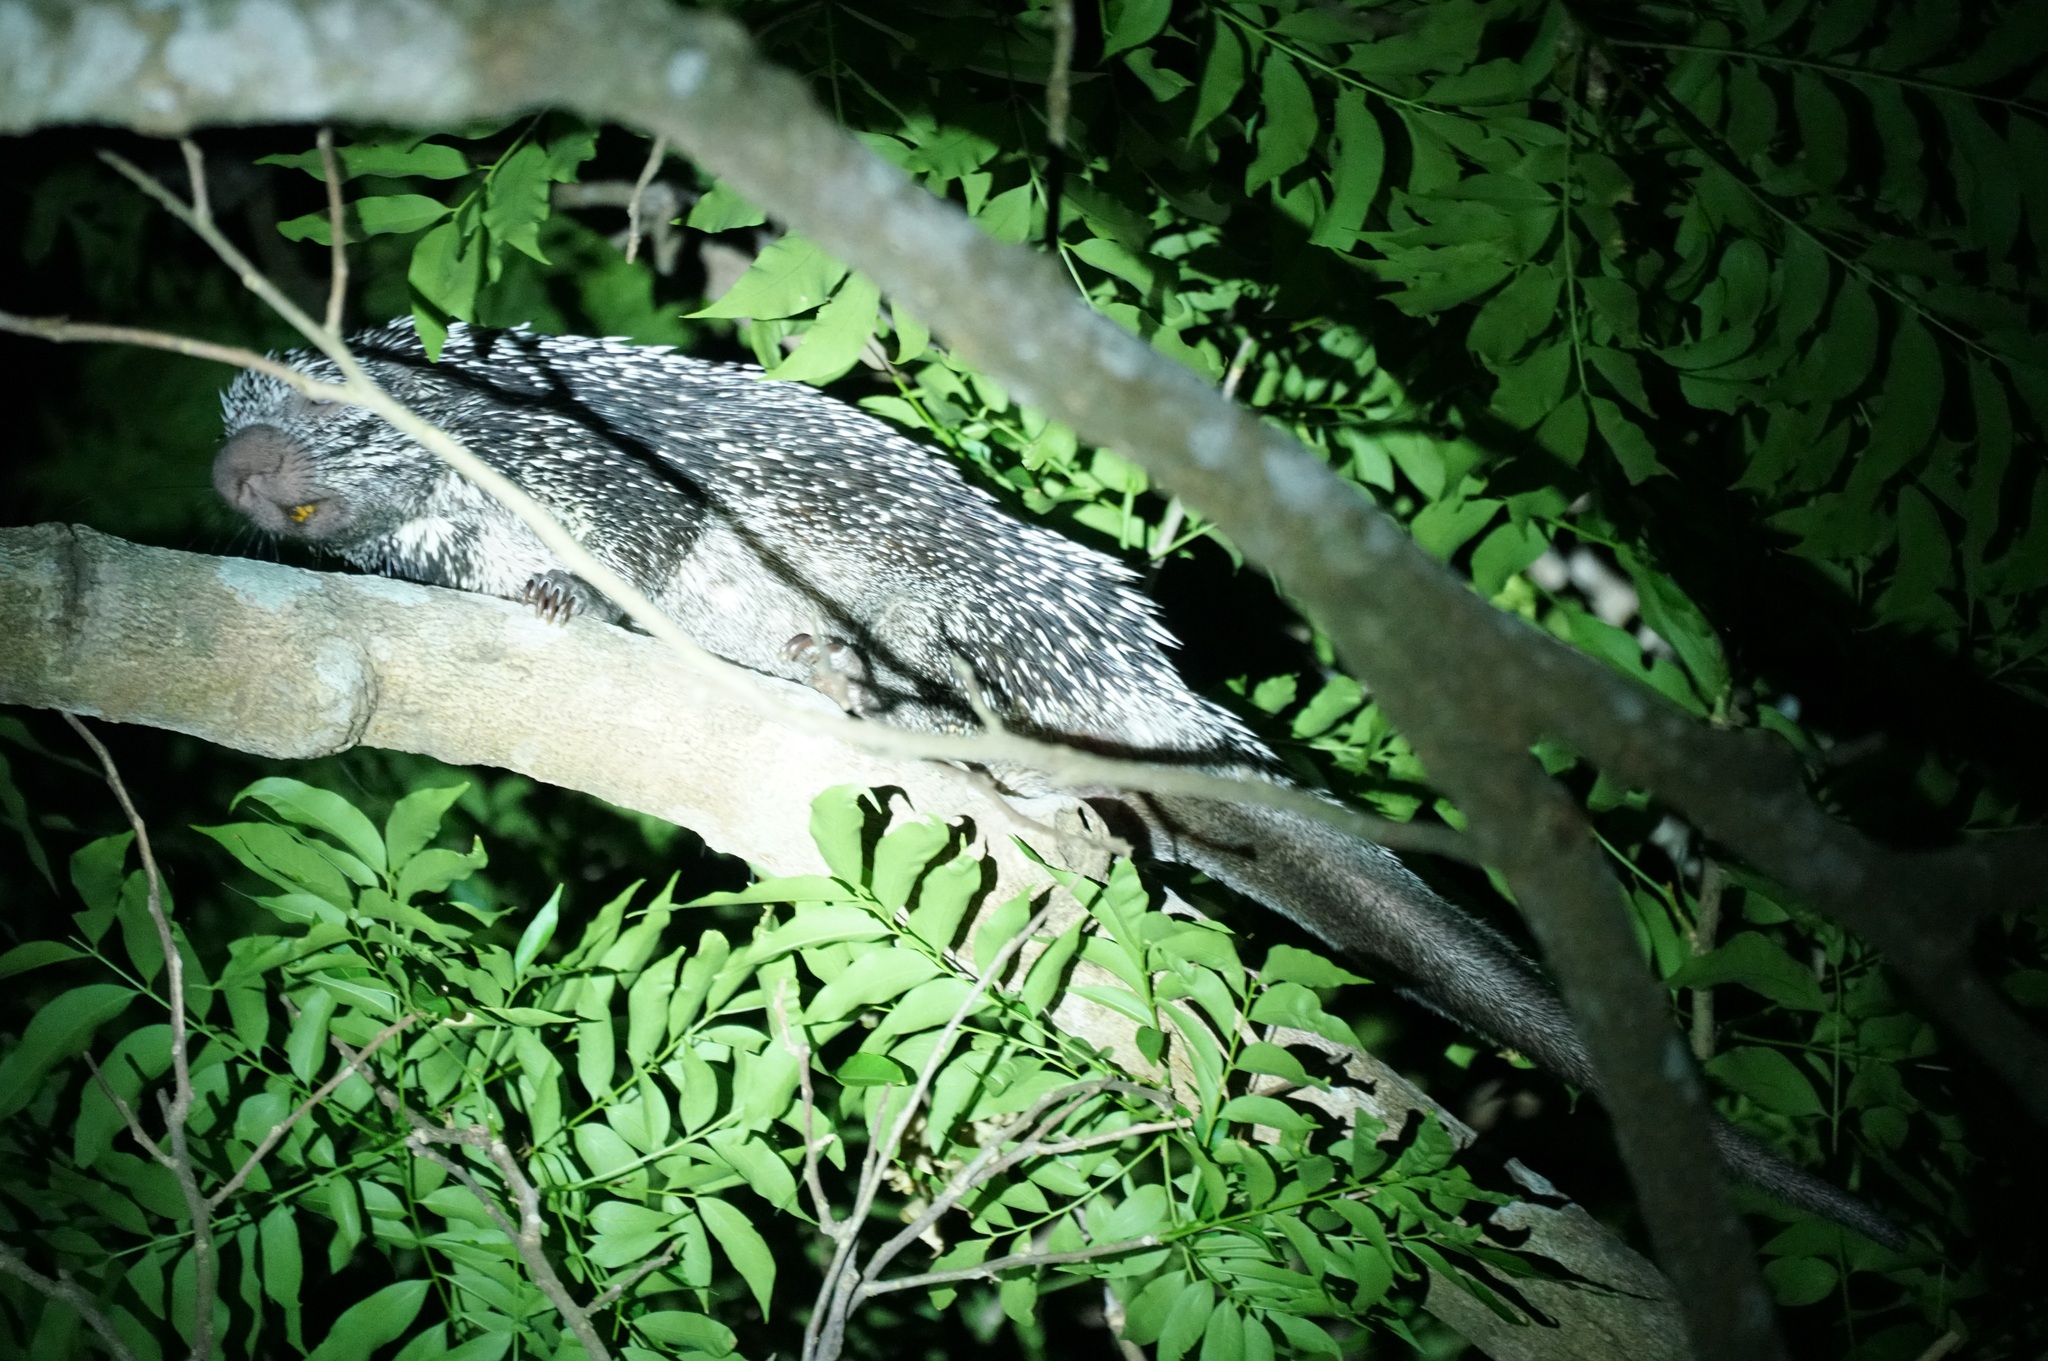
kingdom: Animalia
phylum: Chordata
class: Mammalia
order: Rodentia
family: Erethizontidae
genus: Coendou
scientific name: Coendou longicaudatus
